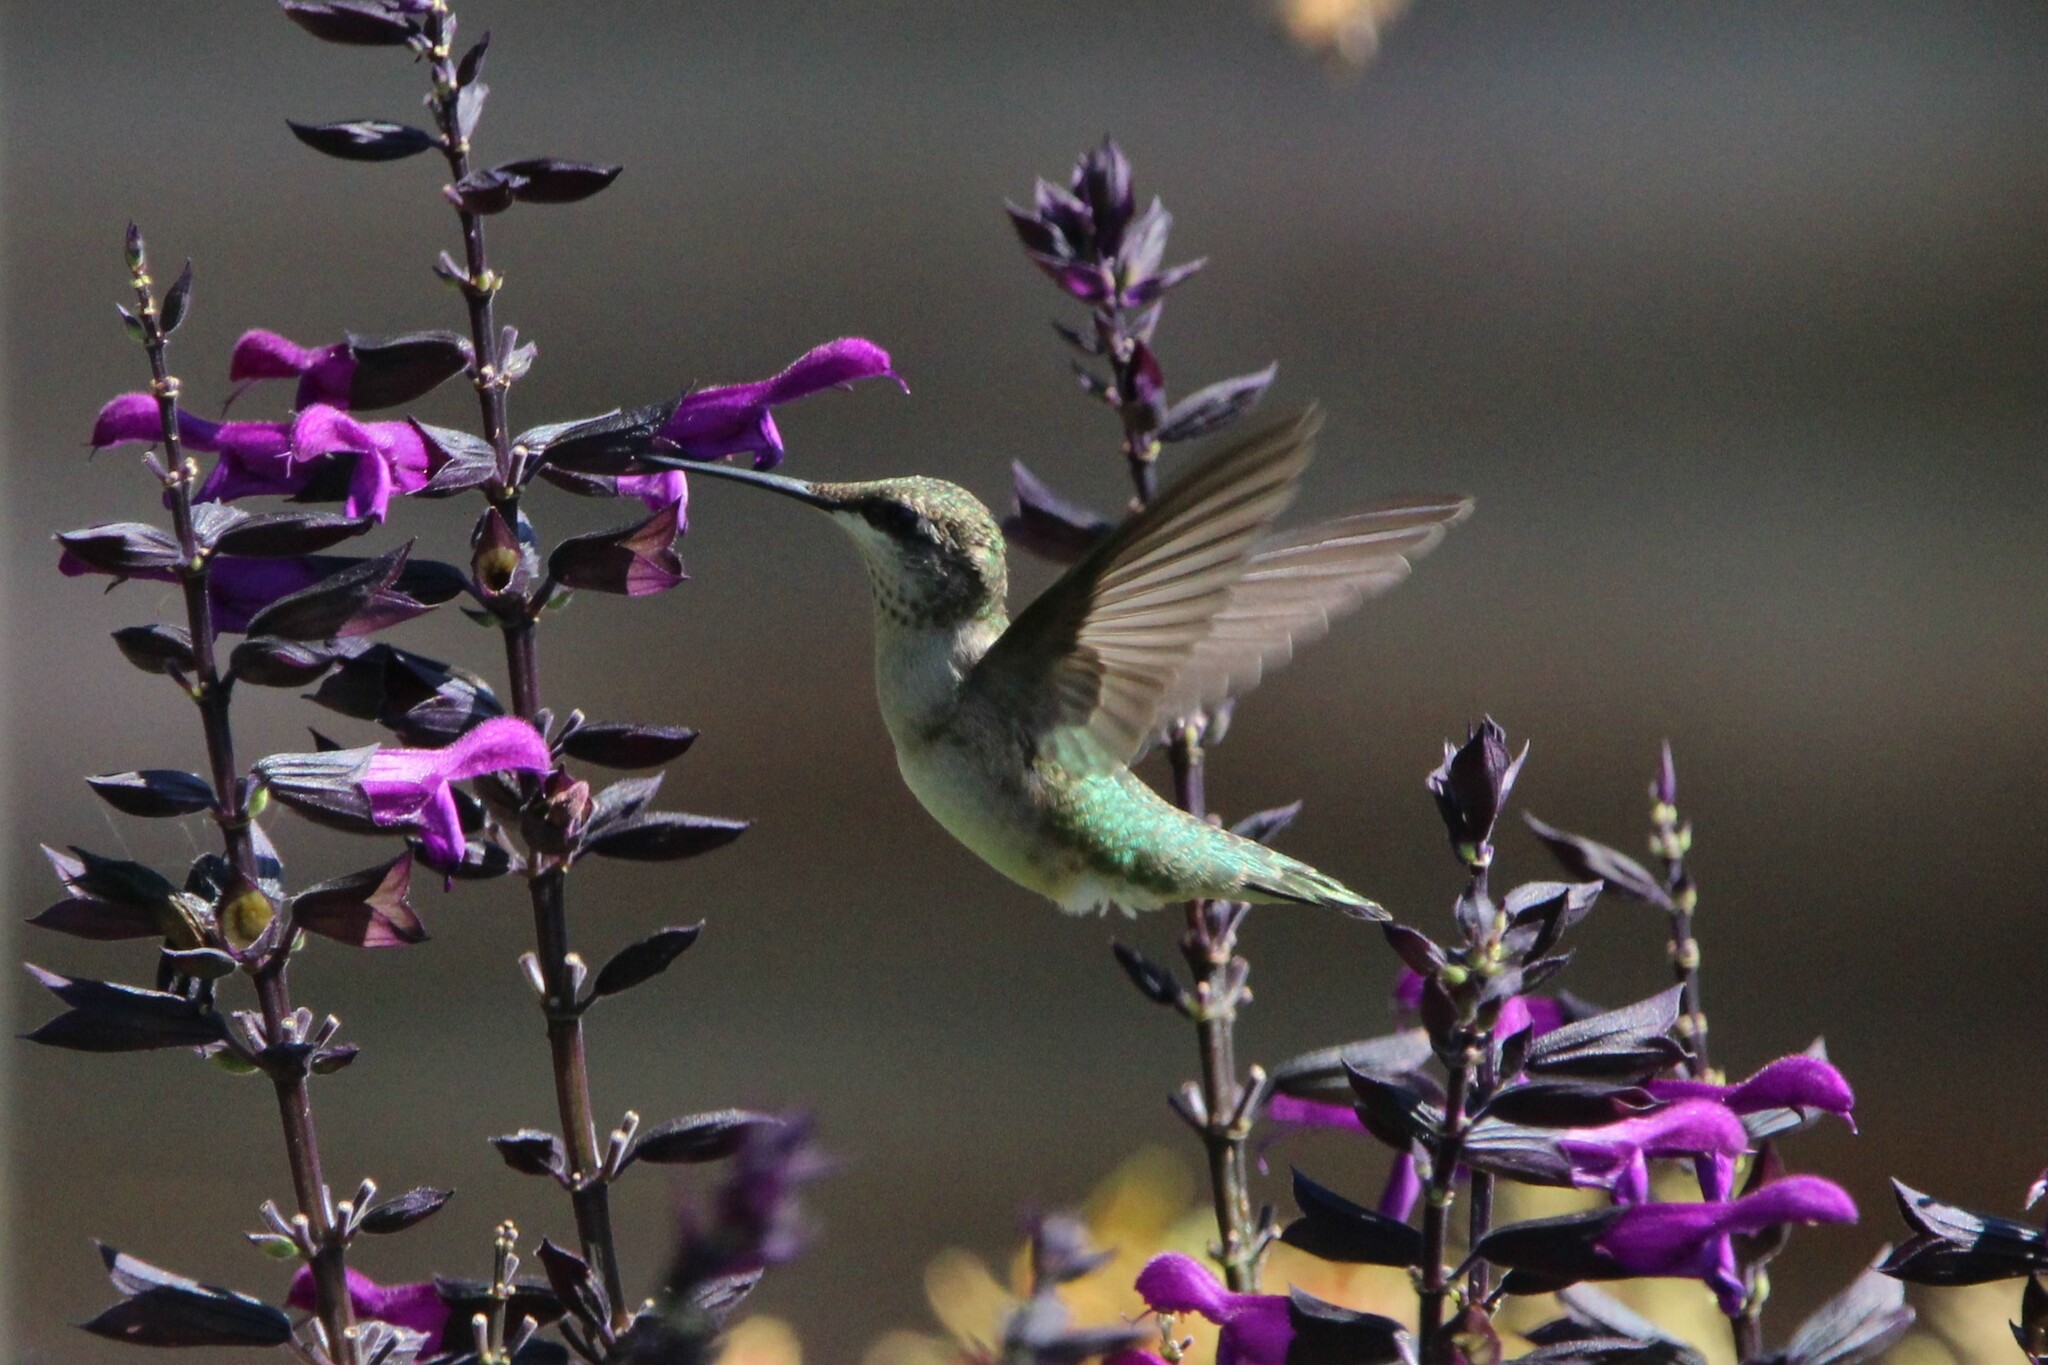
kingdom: Animalia
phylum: Chordata
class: Aves
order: Apodiformes
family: Trochilidae
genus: Archilochus
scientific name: Archilochus colubris
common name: Ruby-throated hummingbird
